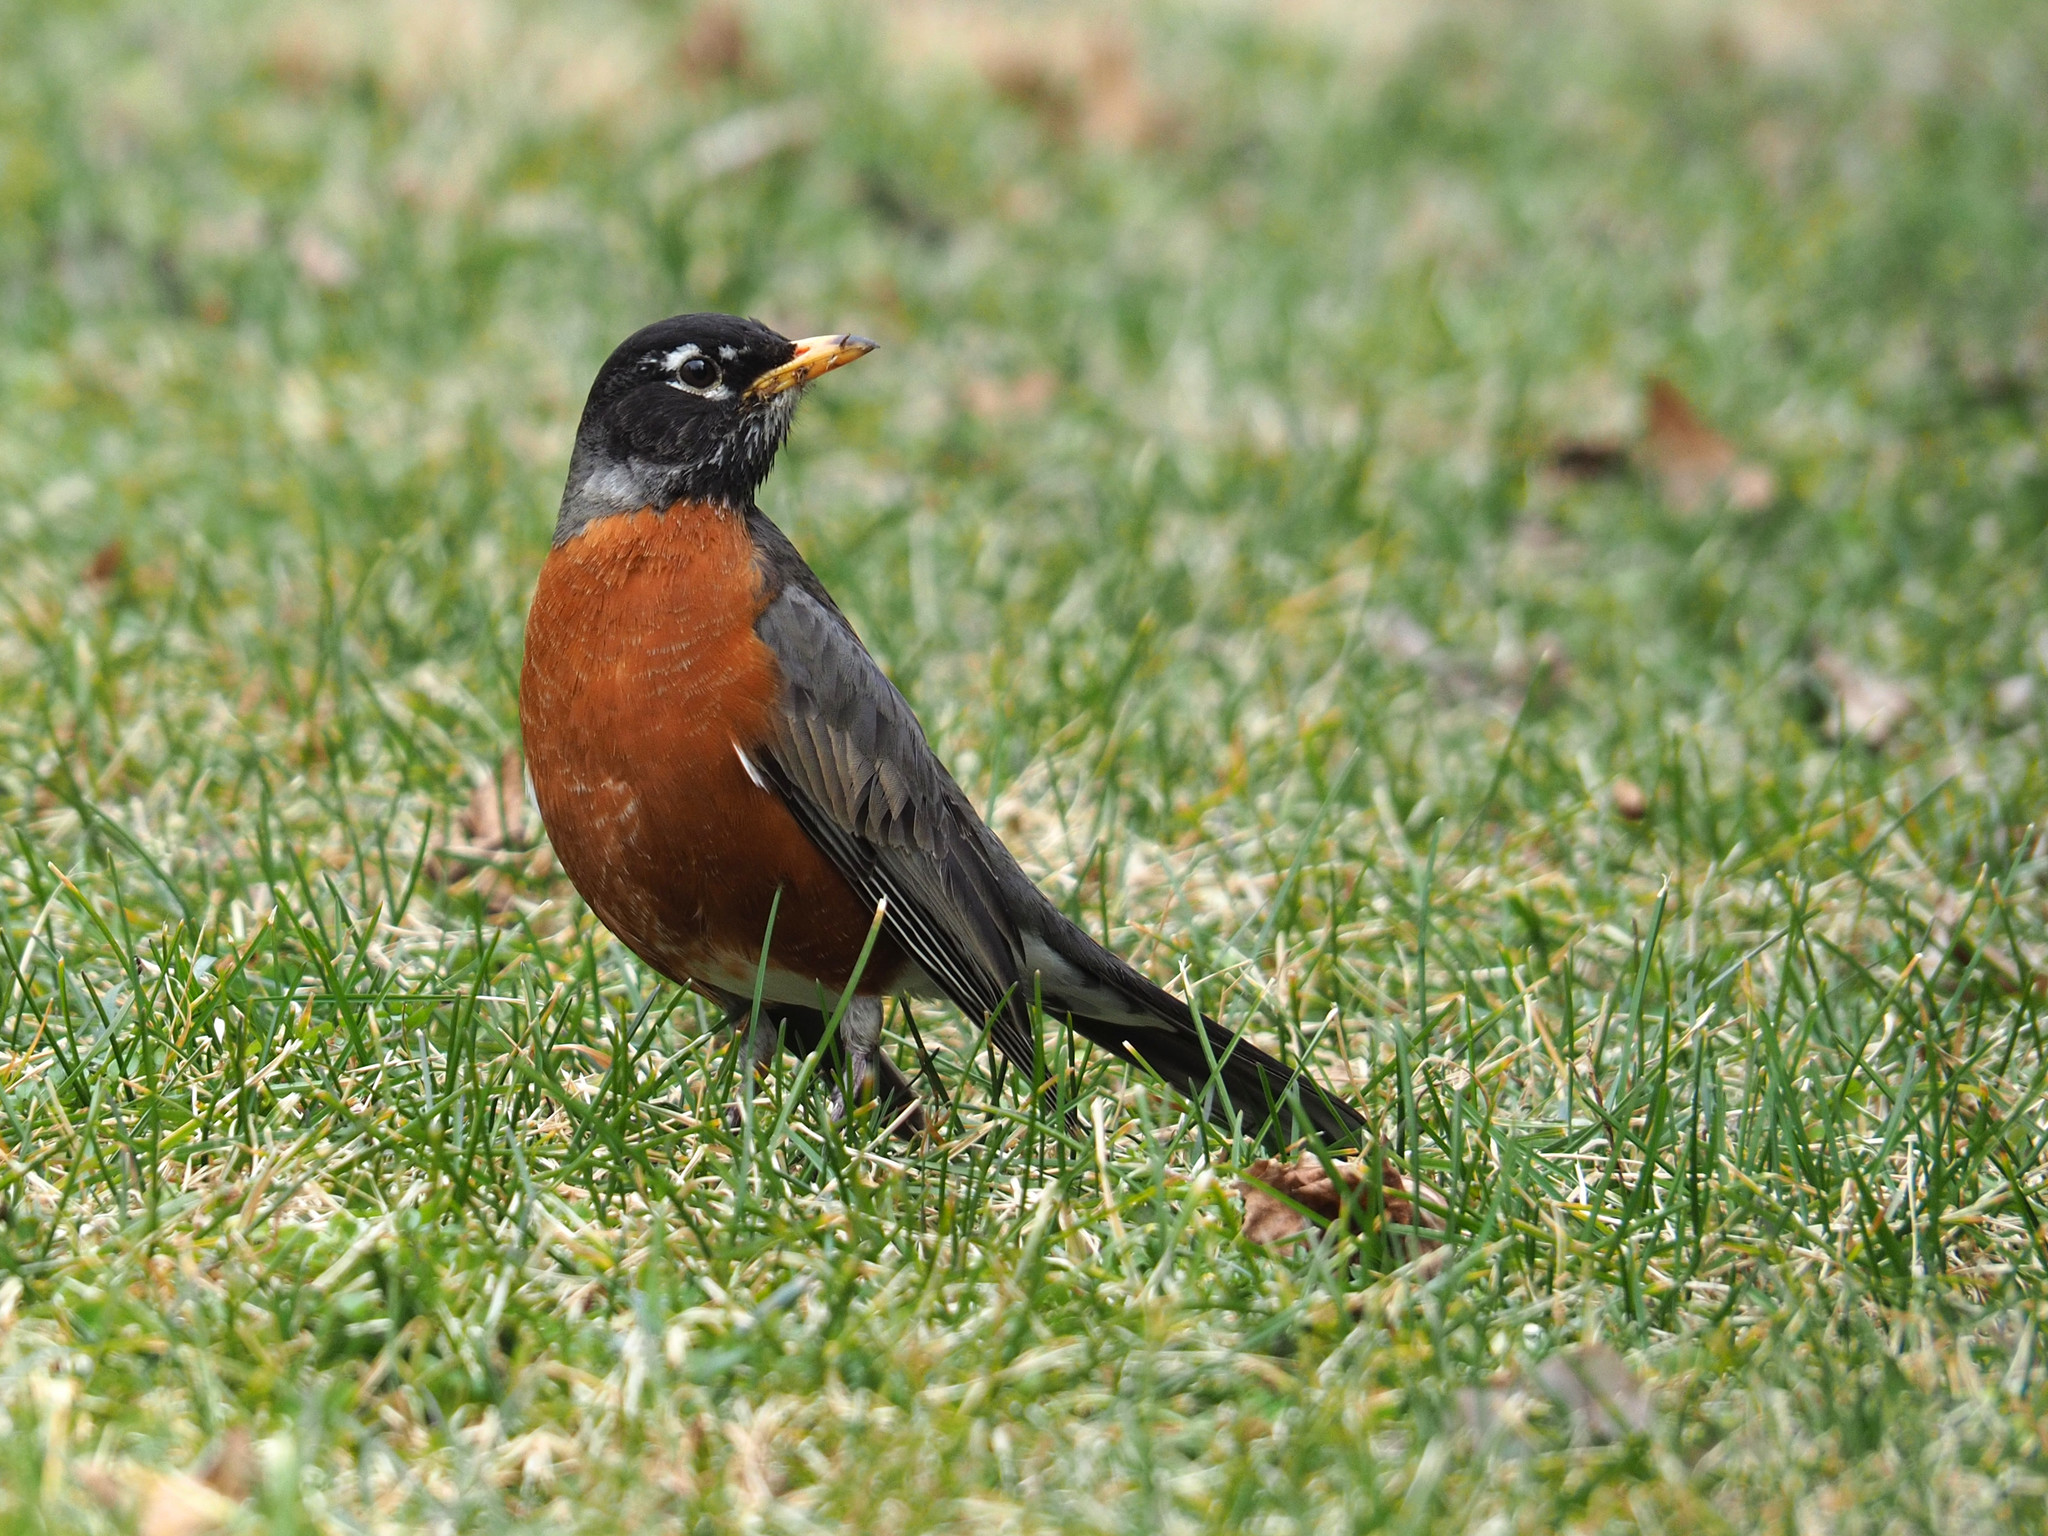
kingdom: Animalia
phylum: Chordata
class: Aves
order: Passeriformes
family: Turdidae
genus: Turdus
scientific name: Turdus migratorius
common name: American robin
